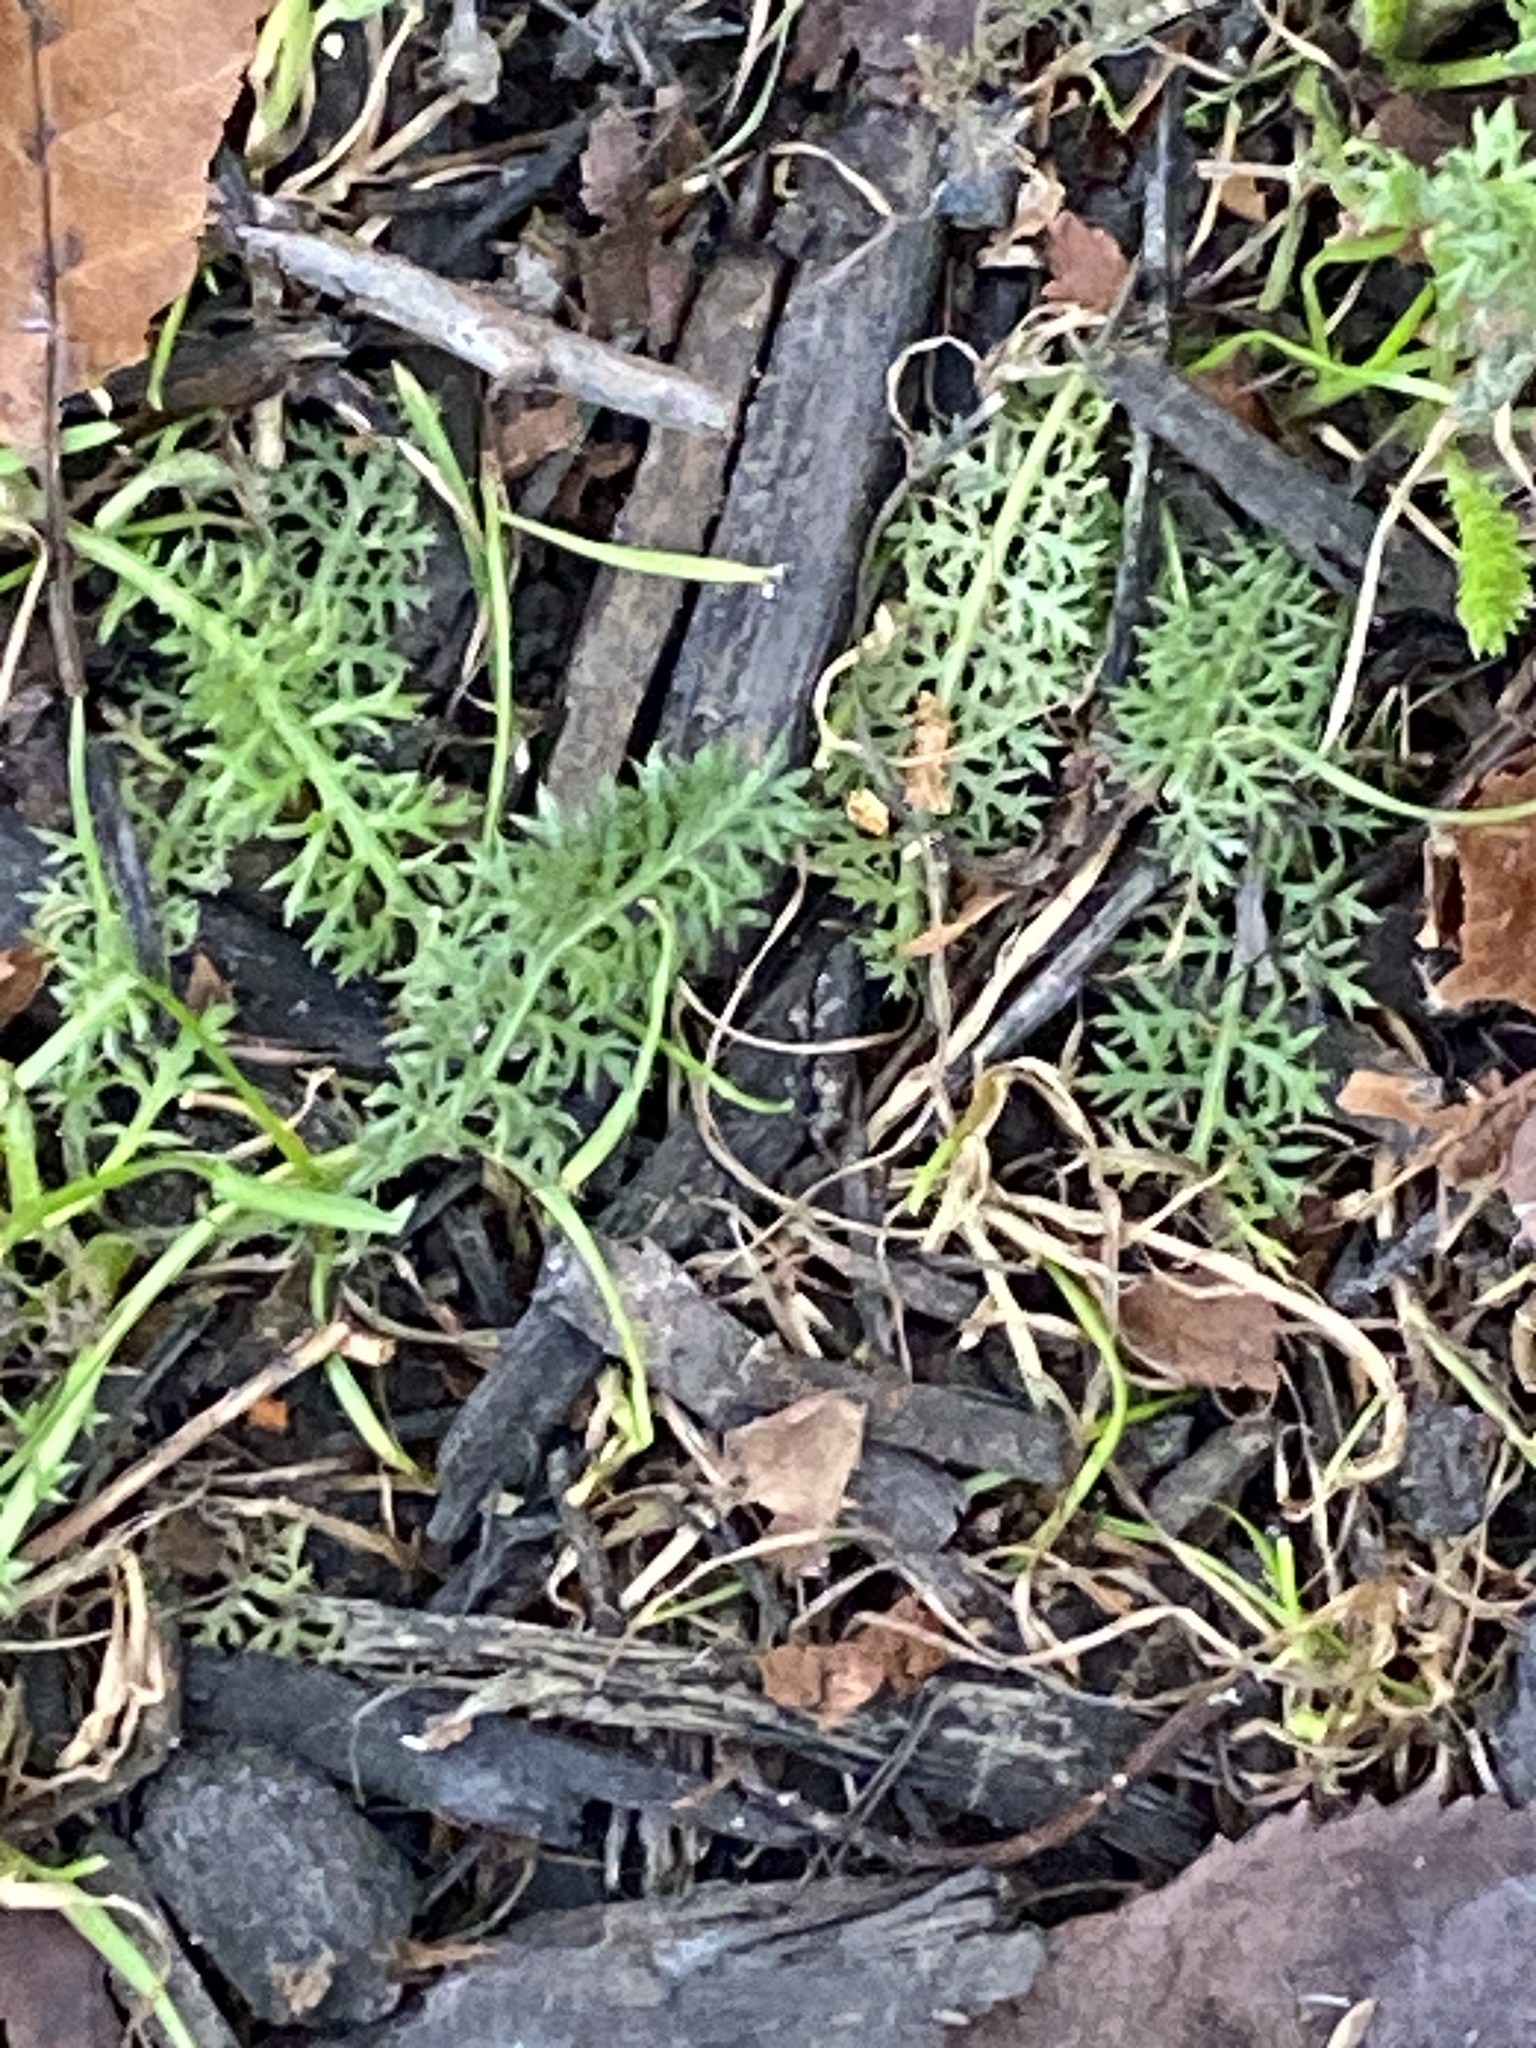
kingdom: Plantae
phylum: Tracheophyta
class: Magnoliopsida
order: Asterales
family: Asteraceae
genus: Achillea
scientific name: Achillea millefolium
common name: Yarrow
